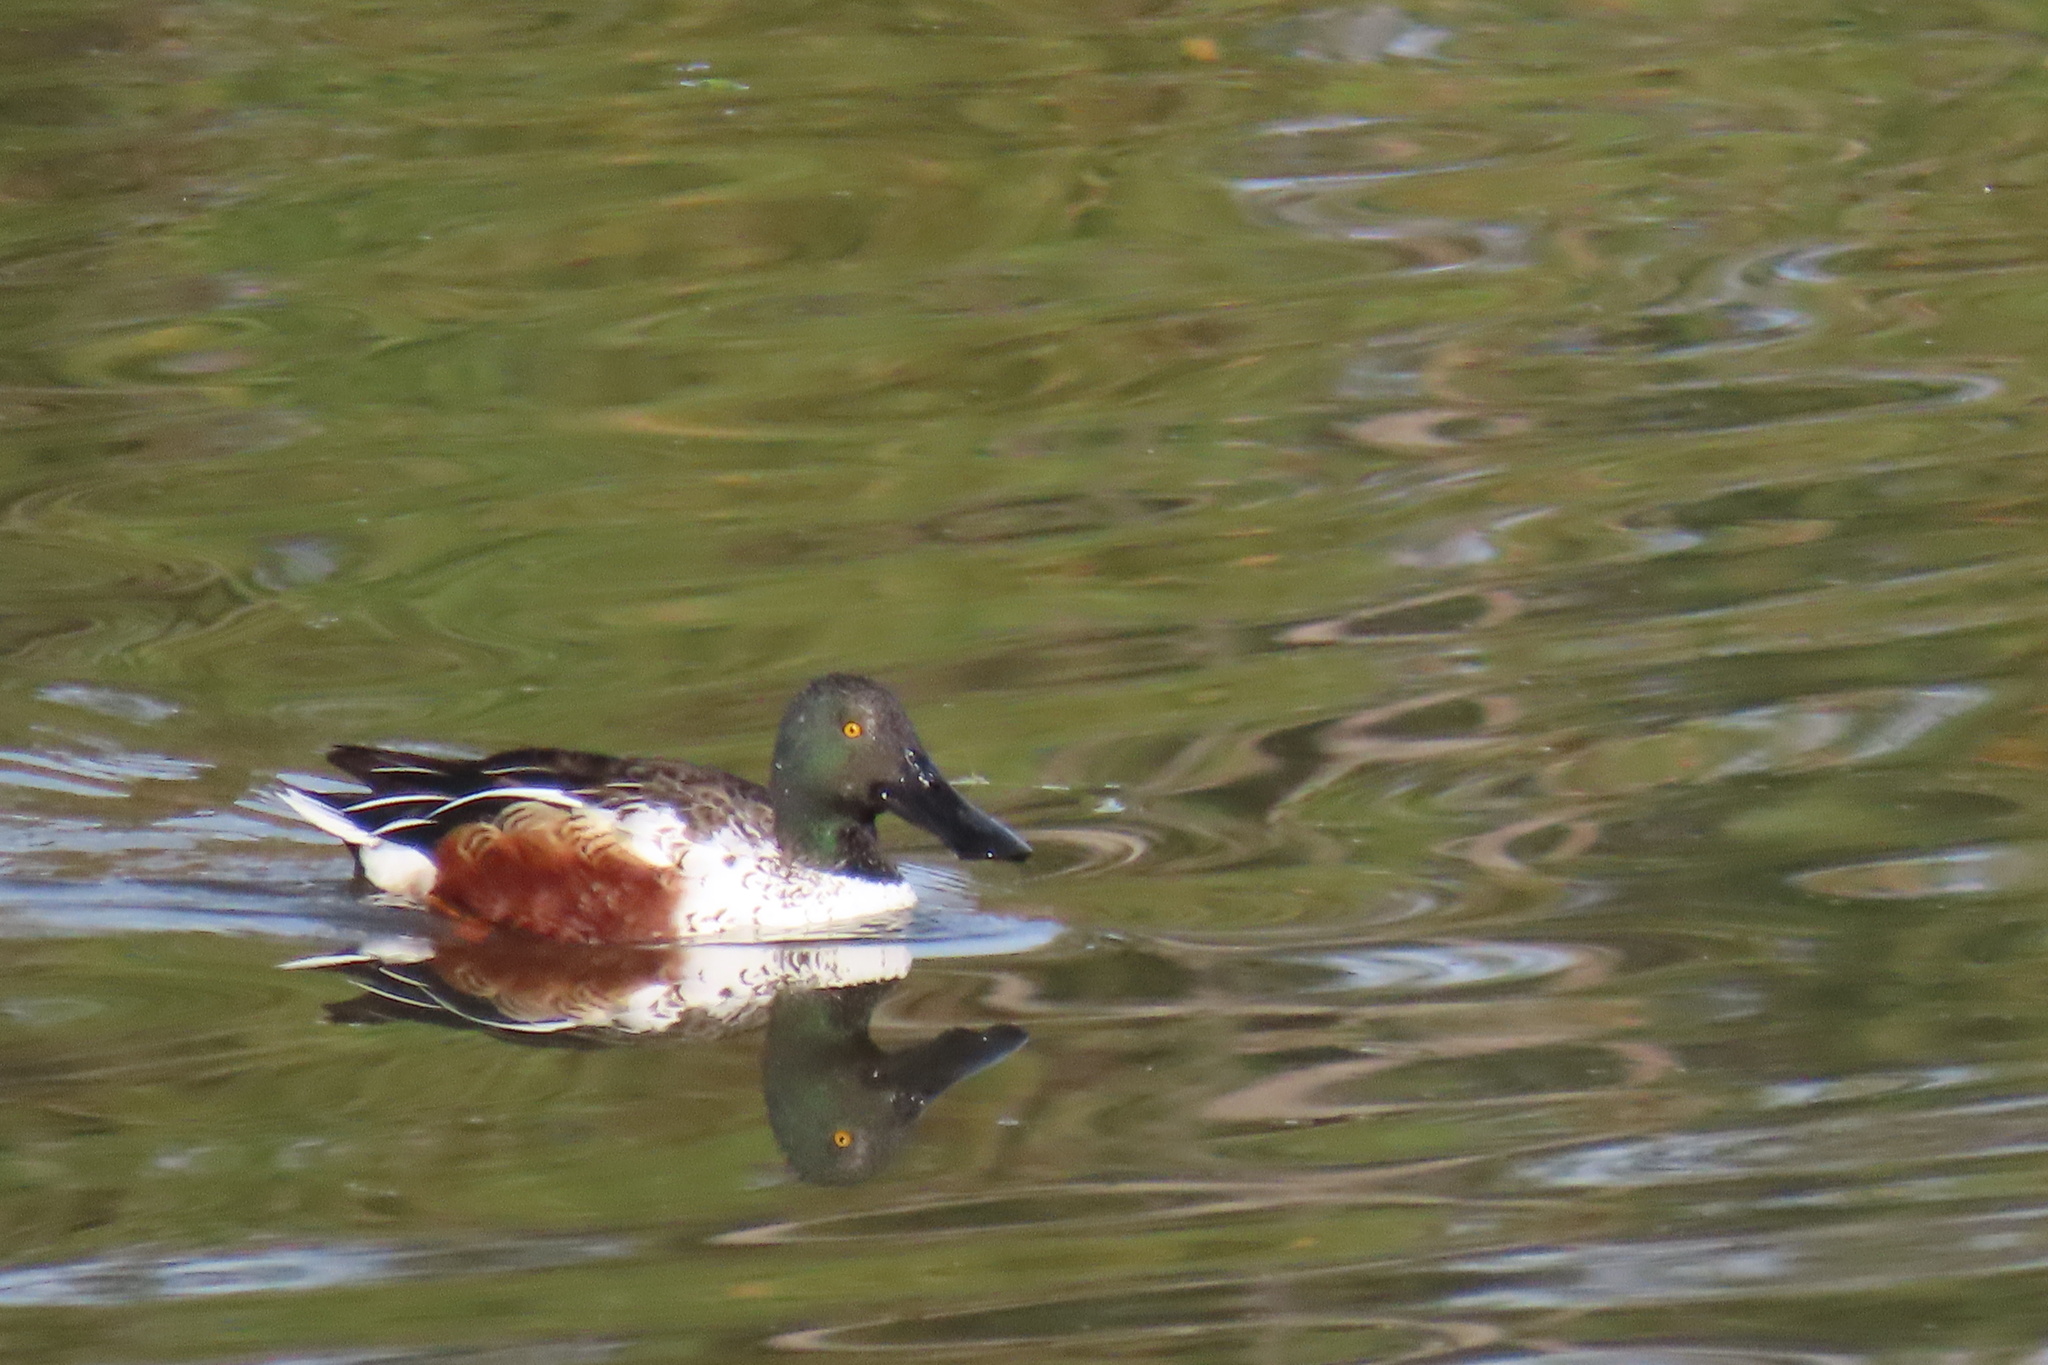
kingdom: Animalia
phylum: Chordata
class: Aves
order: Anseriformes
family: Anatidae
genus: Spatula
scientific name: Spatula clypeata
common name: Northern shoveler
